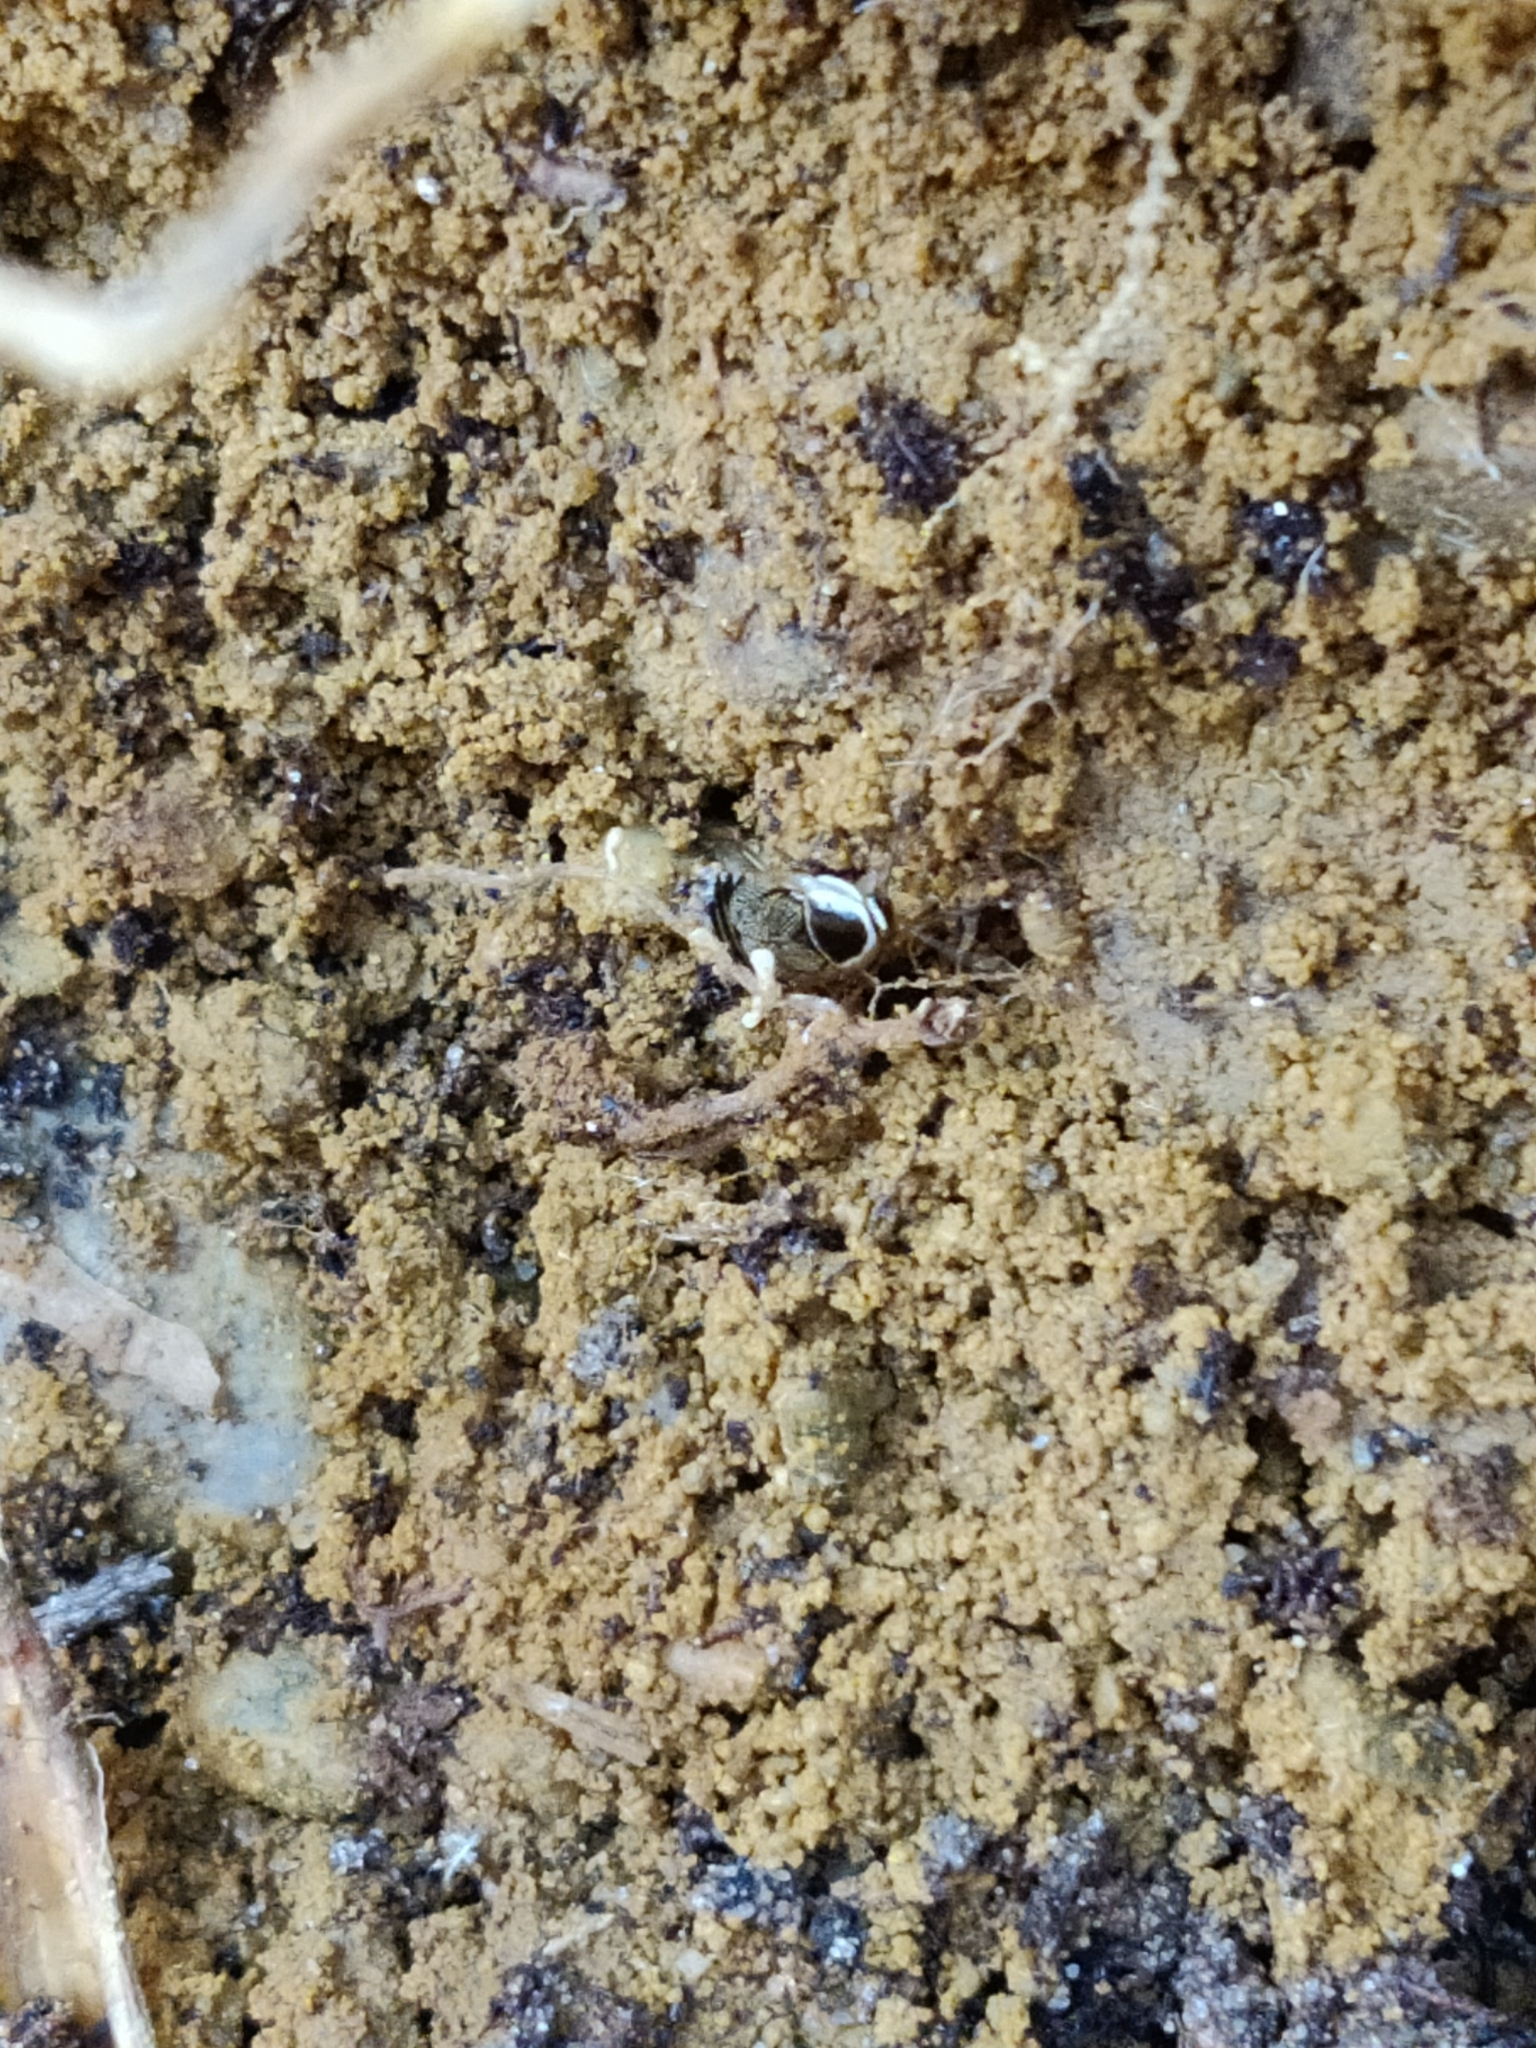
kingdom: Animalia
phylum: Arthropoda
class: Insecta
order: Blattodea
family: Ectobiidae
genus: Ectobius
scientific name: Ectobius sylvestris
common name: Forest cockroach
